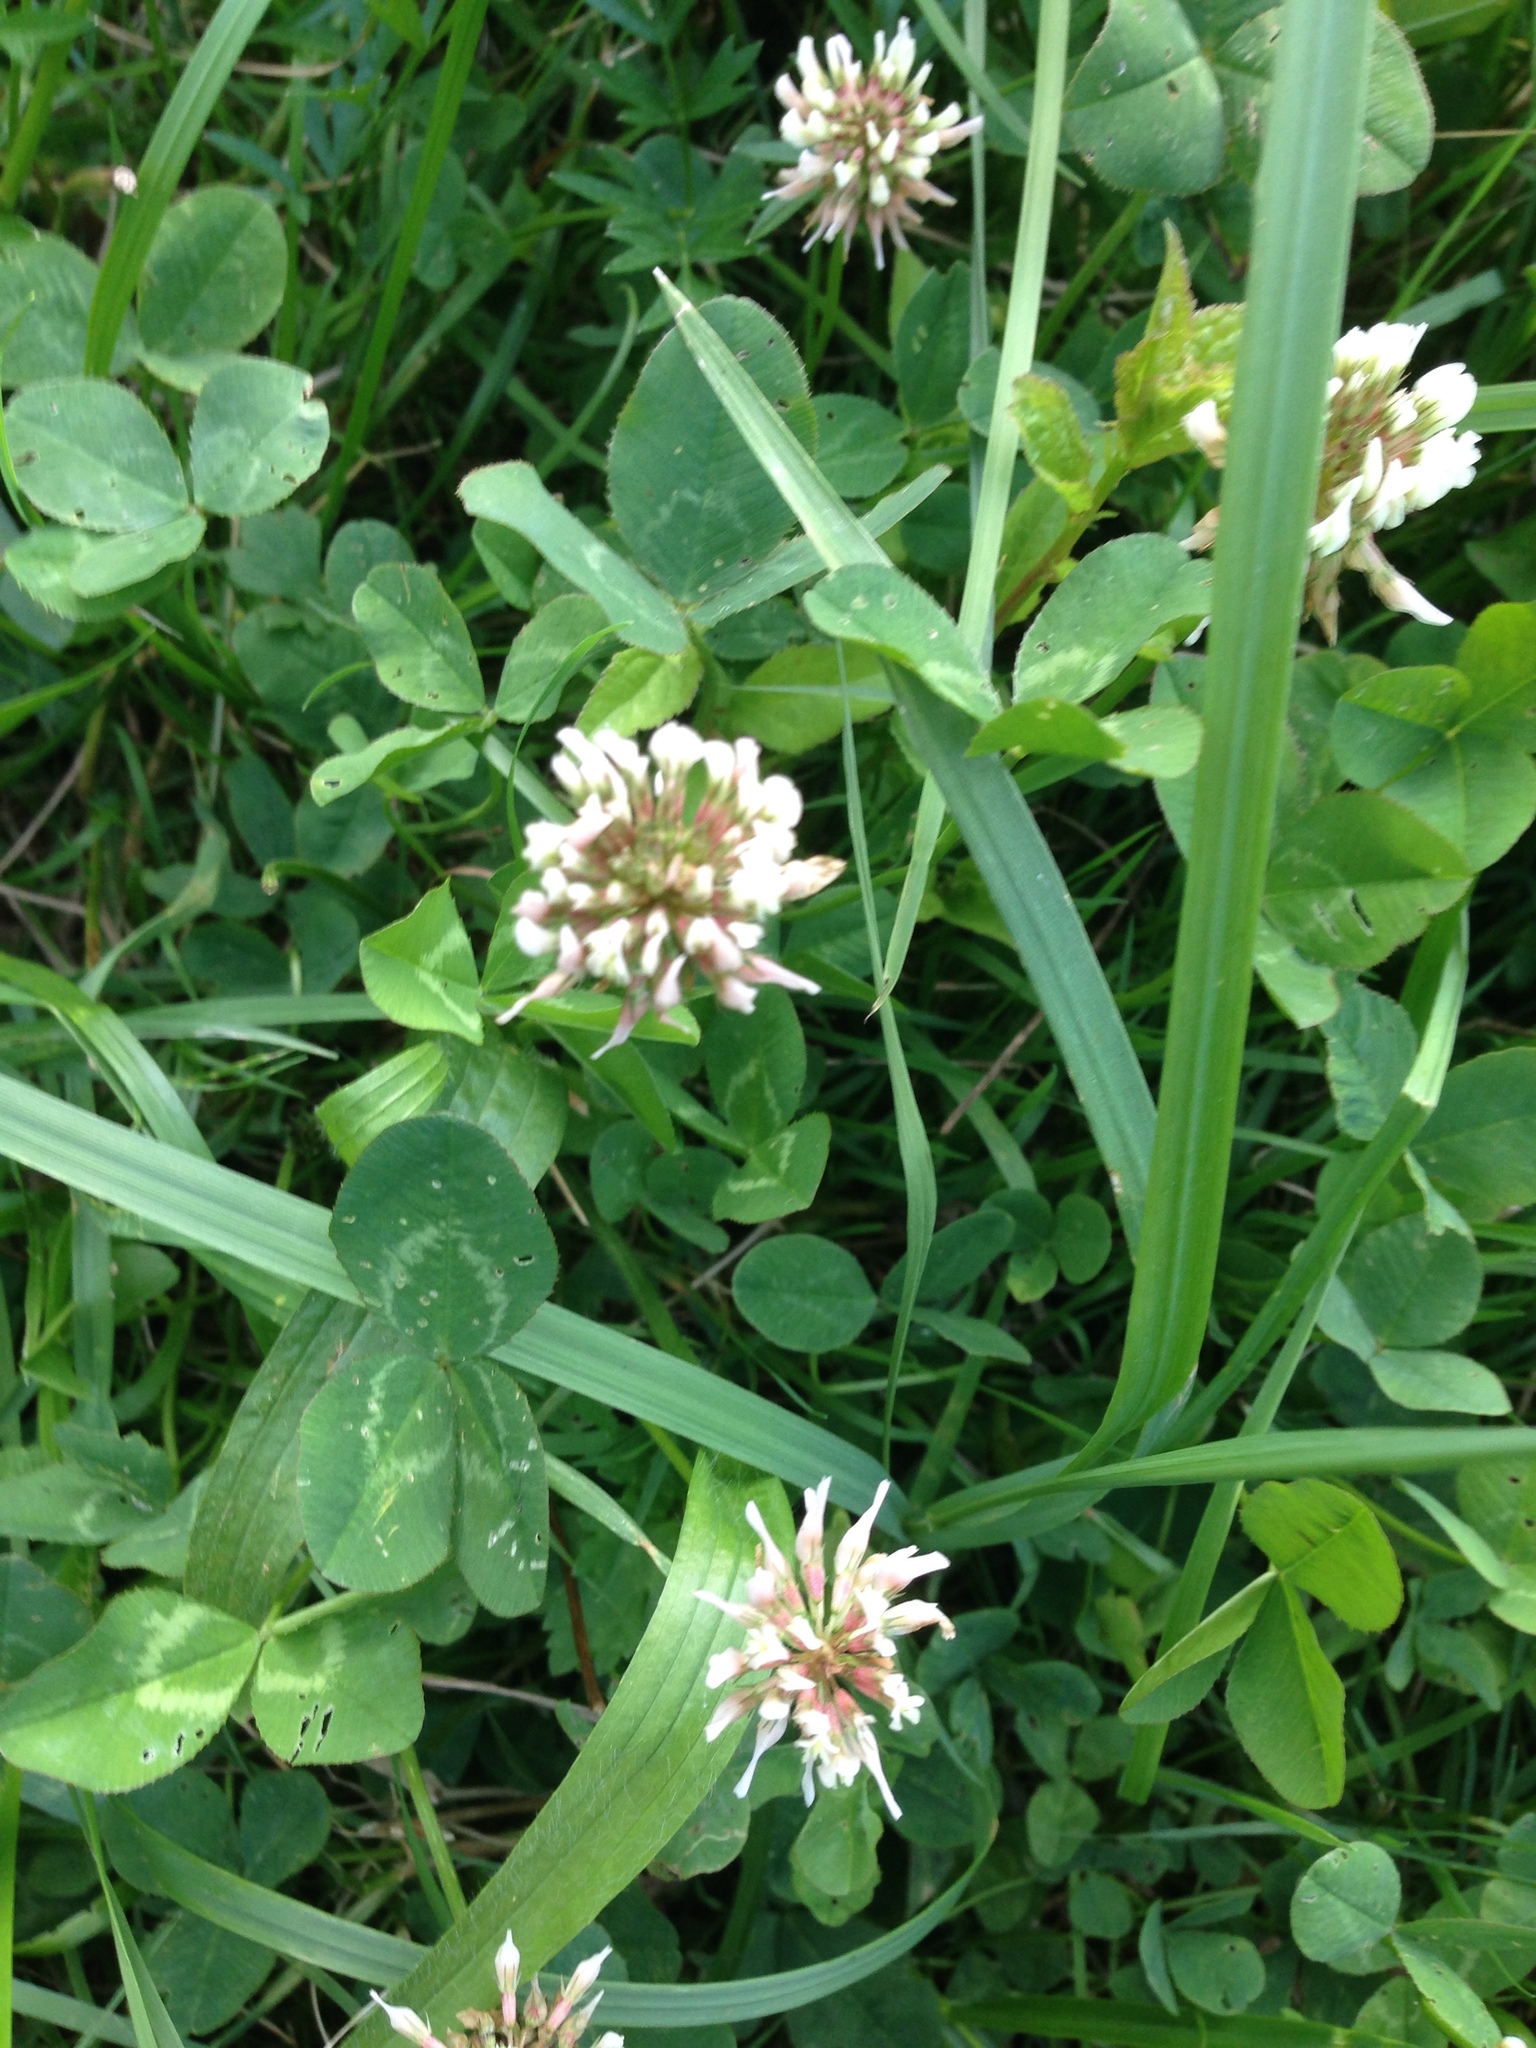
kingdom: Plantae
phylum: Tracheophyta
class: Magnoliopsida
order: Fabales
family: Fabaceae
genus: Trifolium
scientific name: Trifolium repens
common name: White clover
